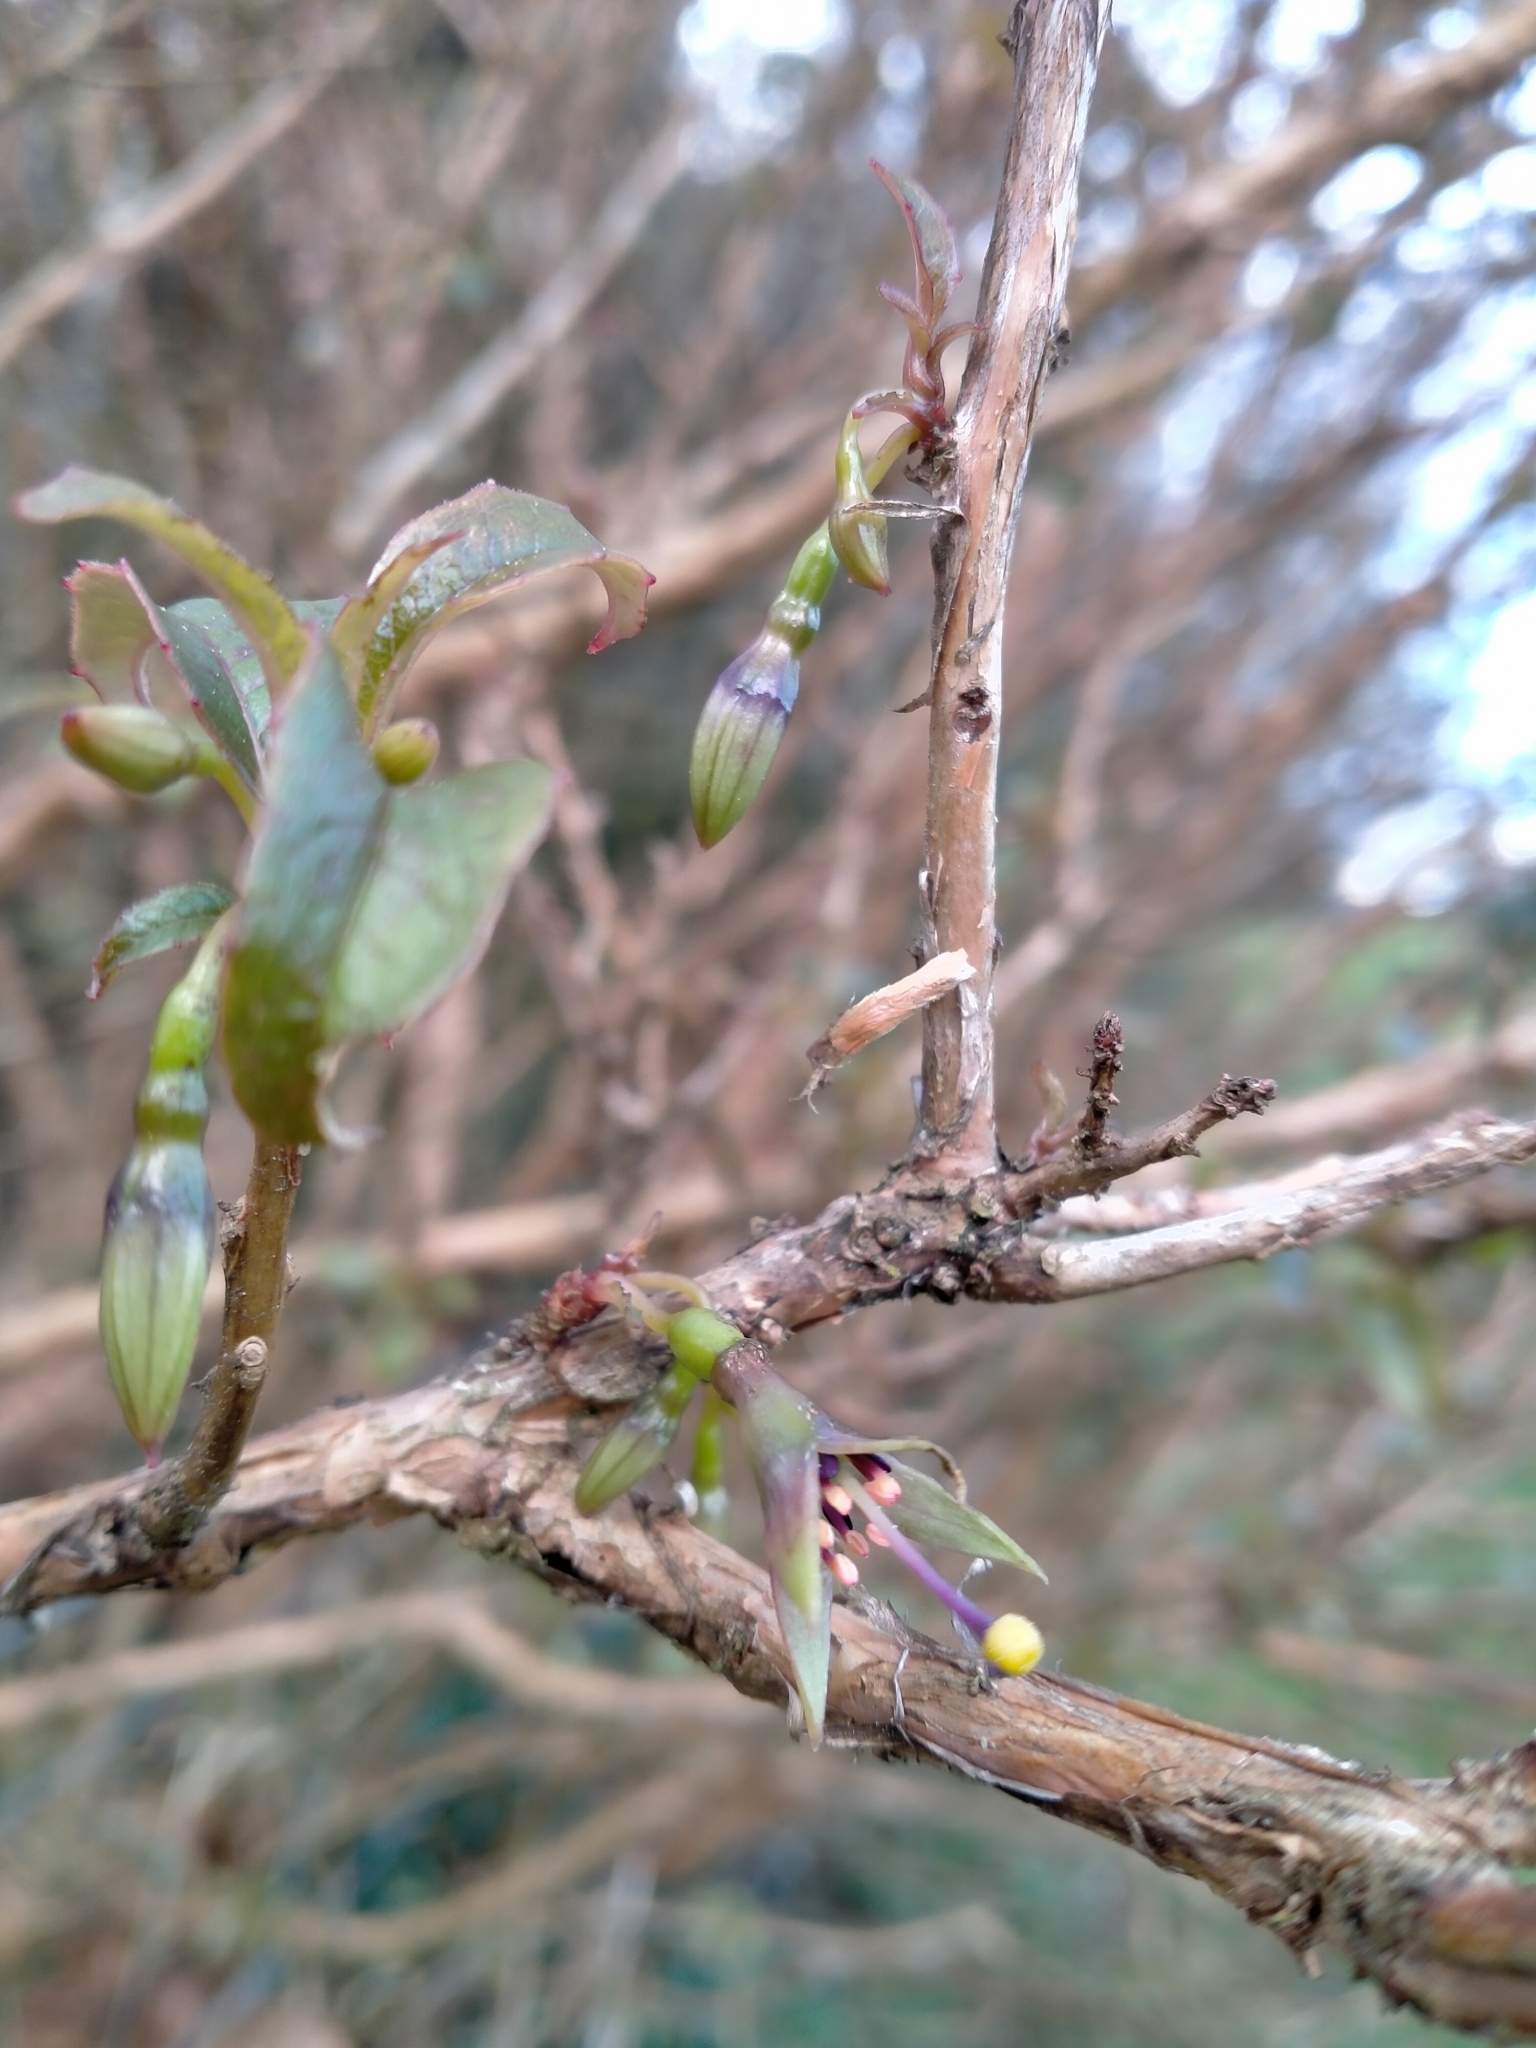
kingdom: Plantae
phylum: Tracheophyta
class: Magnoliopsida
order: Myrtales
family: Onagraceae
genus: Fuchsia
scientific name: Fuchsia excorticata
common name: Tree fuchsia
